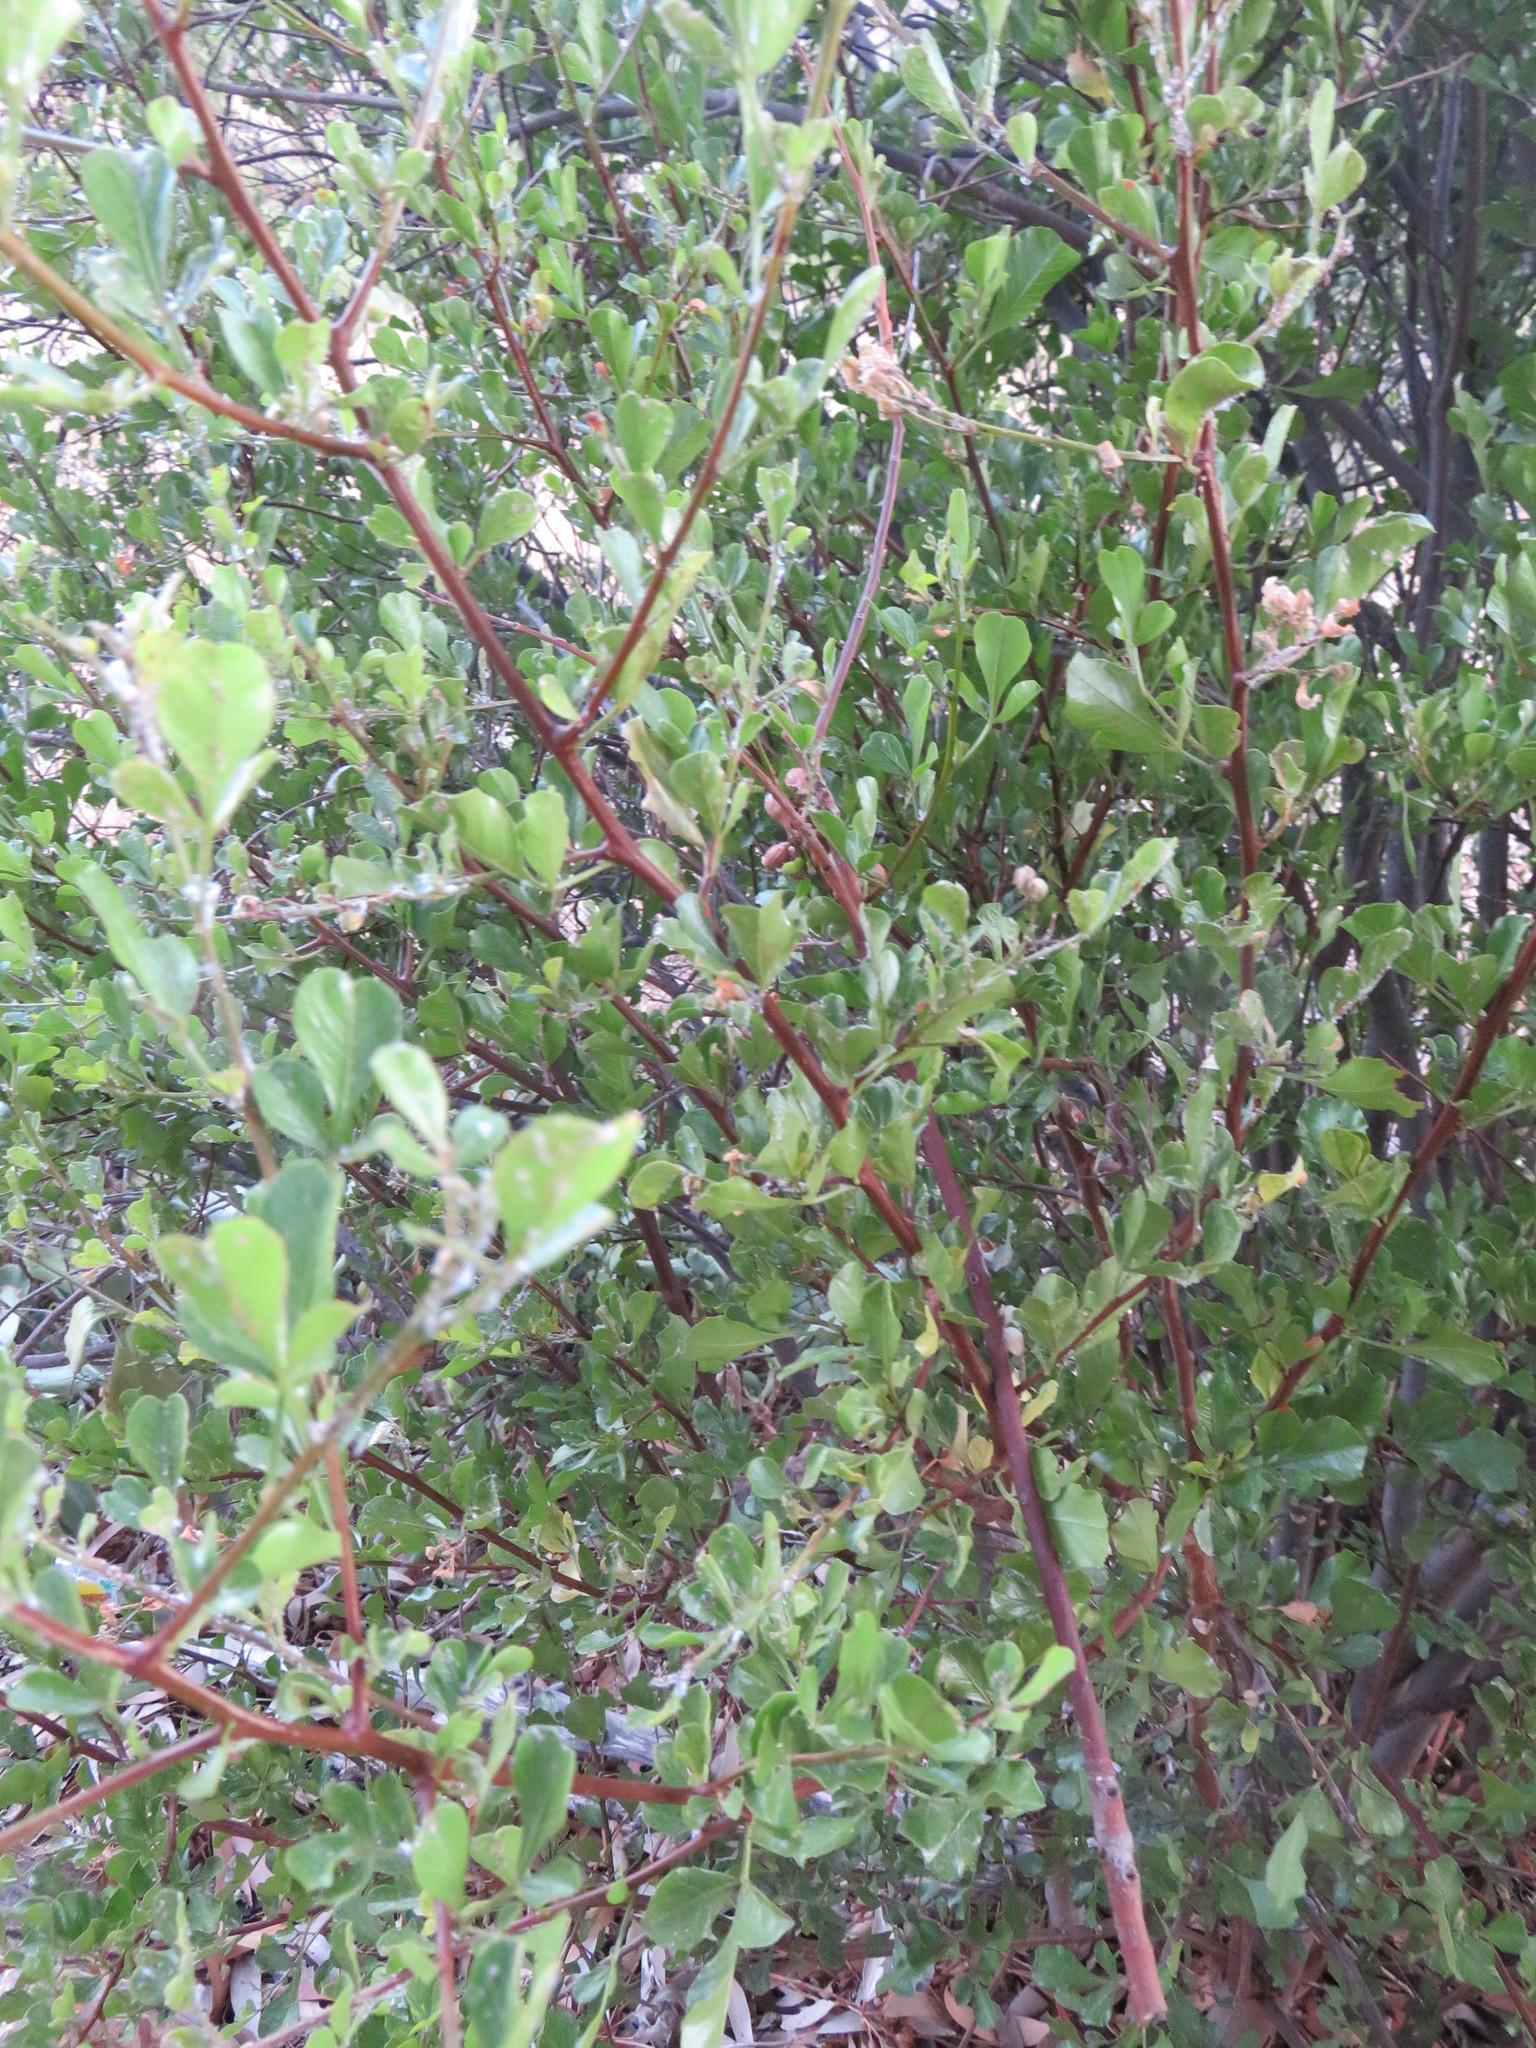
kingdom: Plantae
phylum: Tracheophyta
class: Magnoliopsida
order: Sapindales
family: Anacardiaceae
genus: Searsia
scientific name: Searsia undulata
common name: Namaqua kunibush
